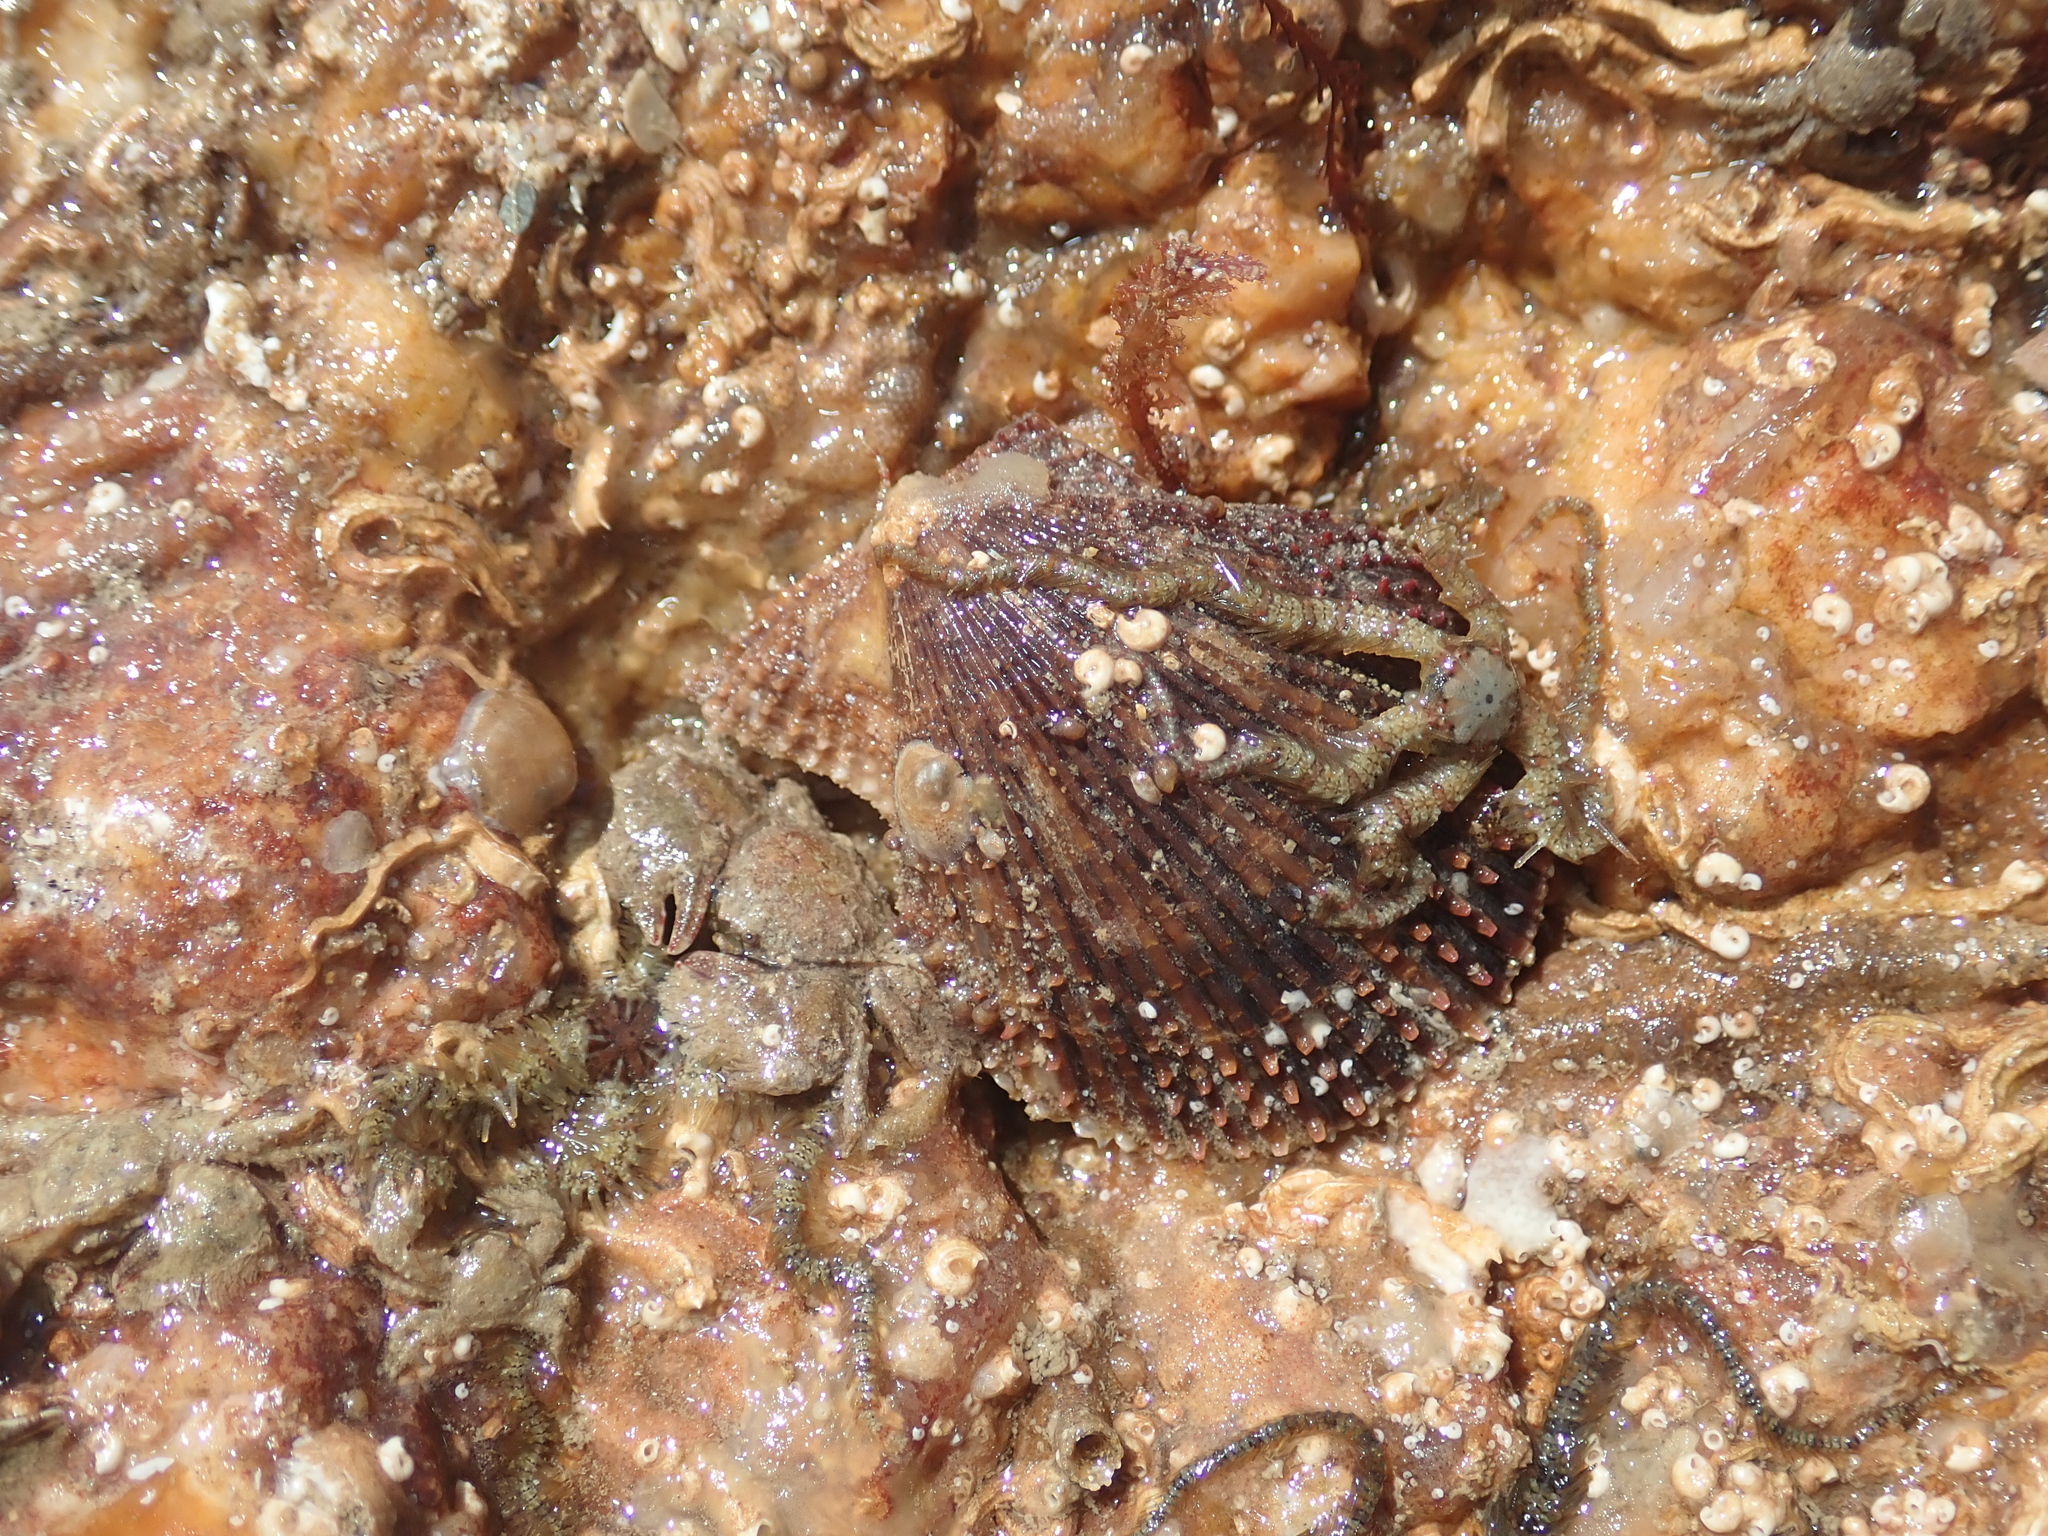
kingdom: Animalia
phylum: Mollusca
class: Bivalvia
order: Pectinida
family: Pectinidae
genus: Mimachlamys
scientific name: Mimachlamys varia
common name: Variegated scallop
